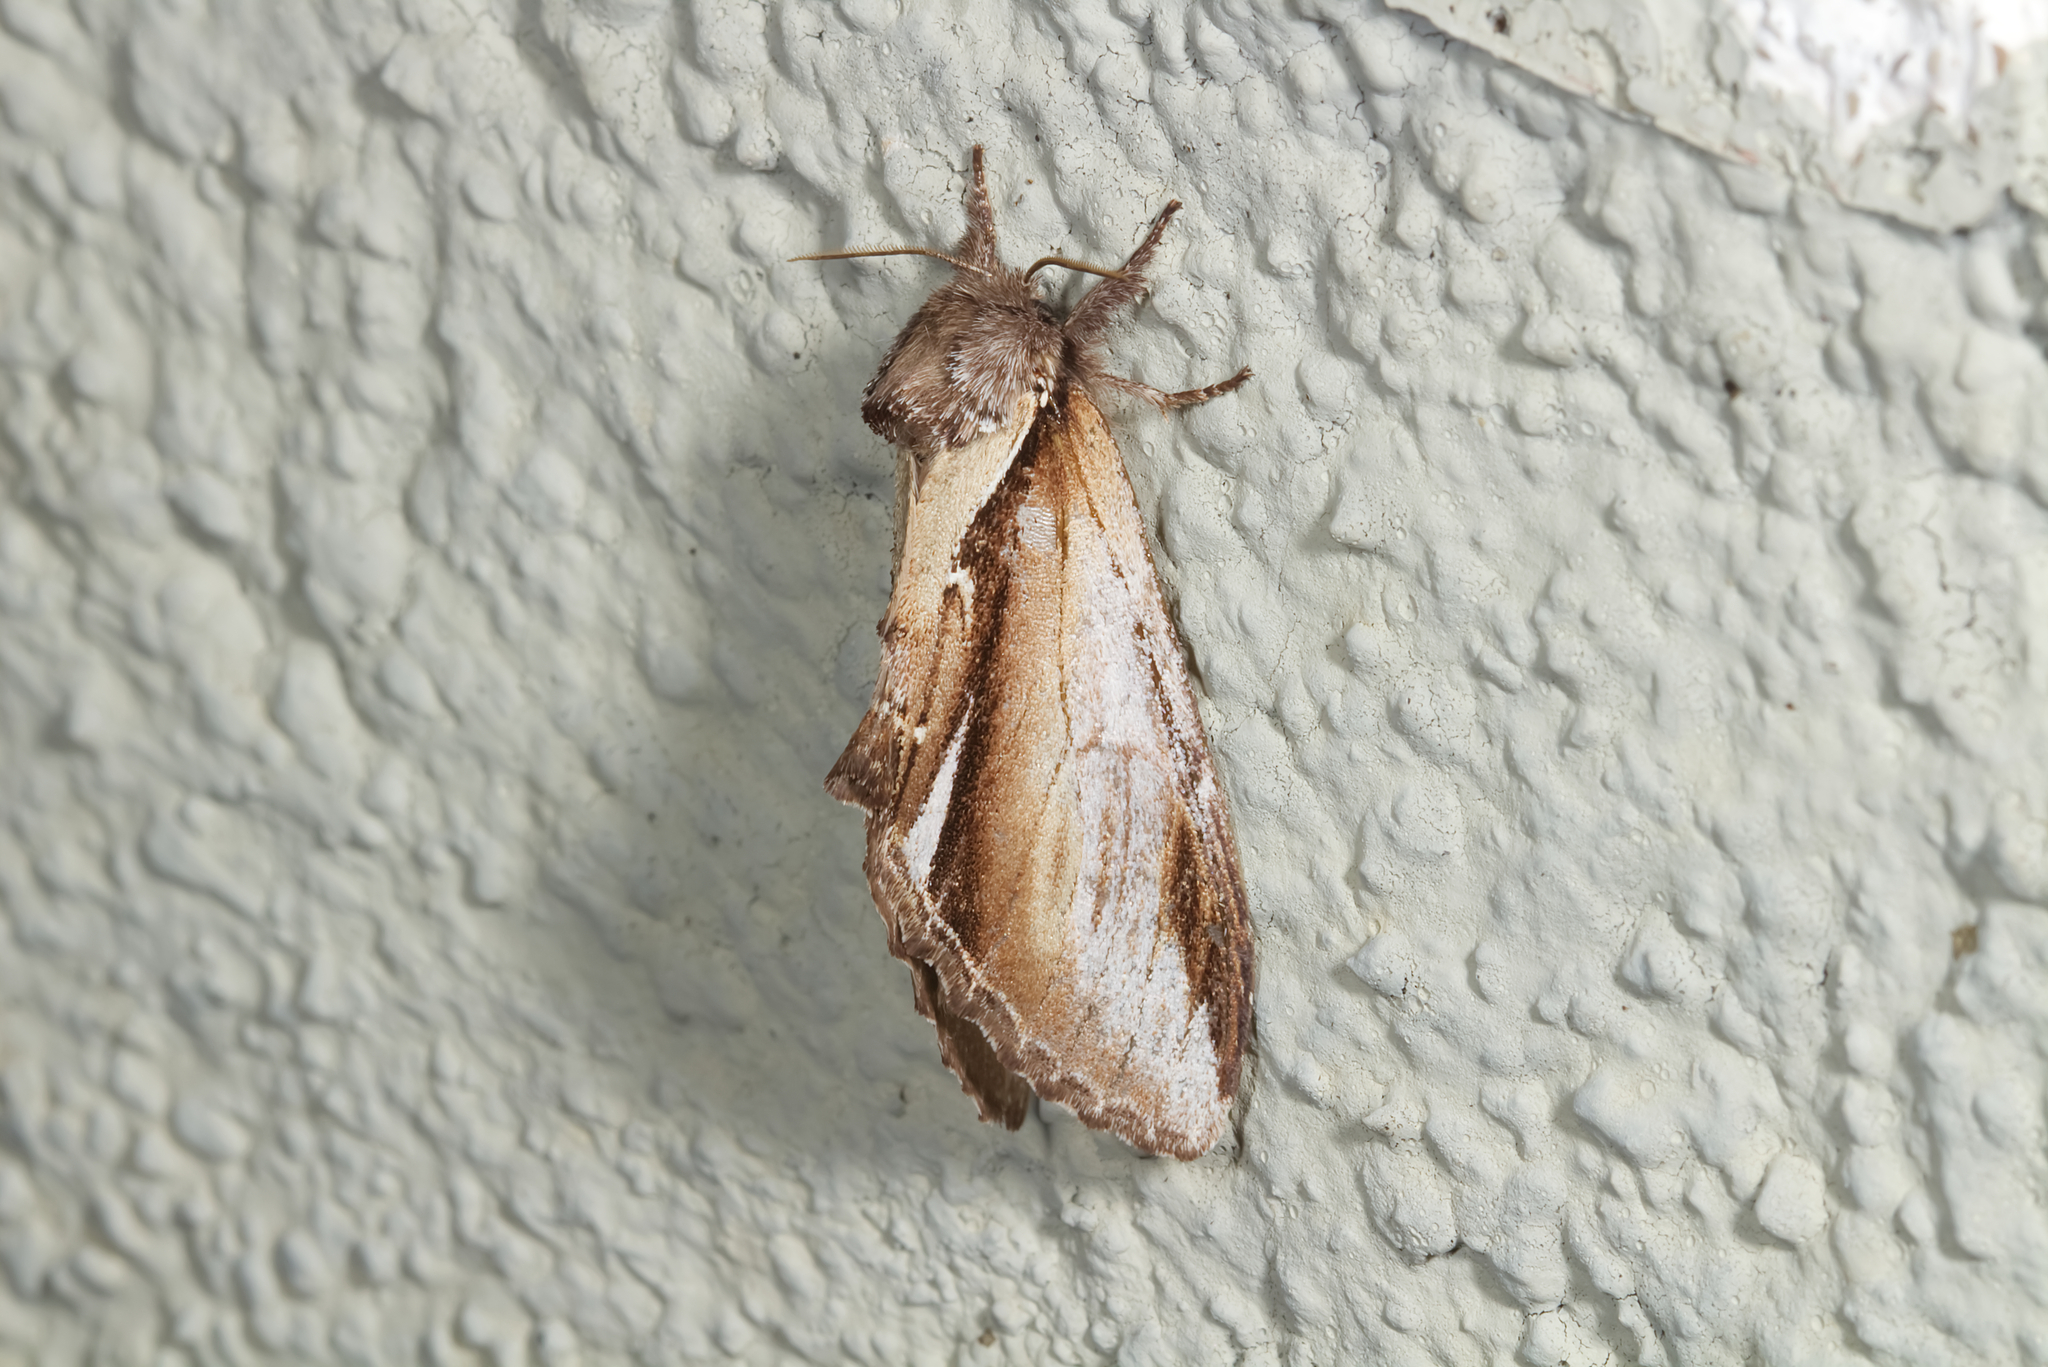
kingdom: Animalia
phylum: Arthropoda
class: Insecta
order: Lepidoptera
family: Notodontidae
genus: Pheosia
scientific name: Pheosia gnoma
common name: Lesser swallow prominent
